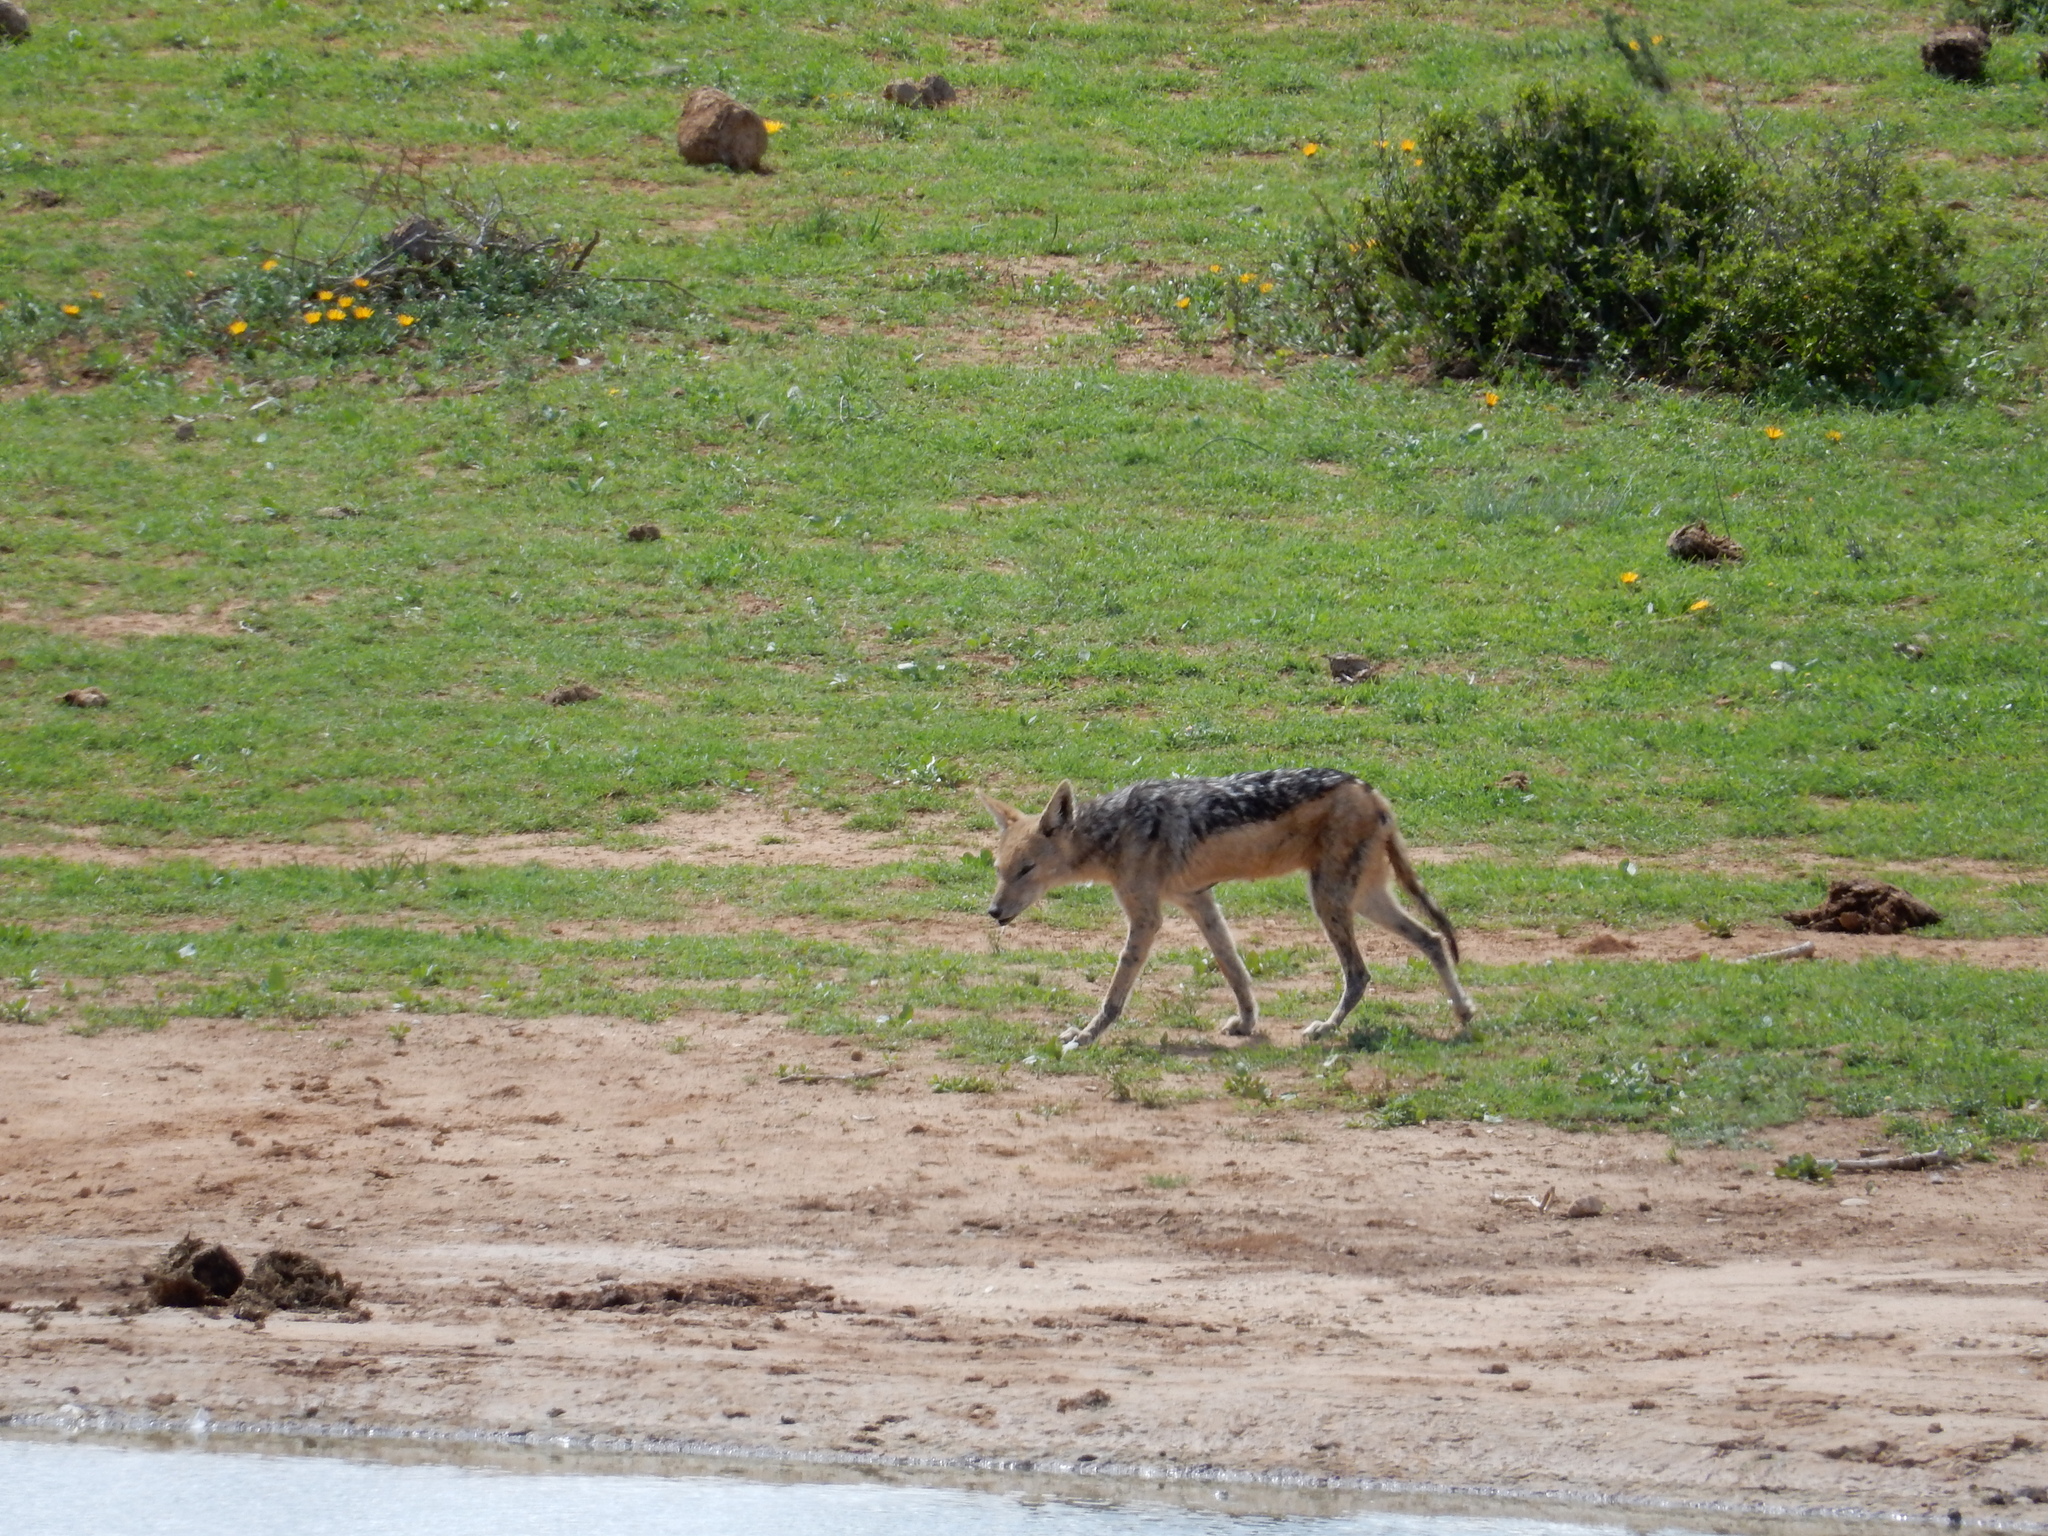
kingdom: Animalia
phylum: Chordata
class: Mammalia
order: Carnivora
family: Canidae
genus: Lupulella
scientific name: Lupulella
